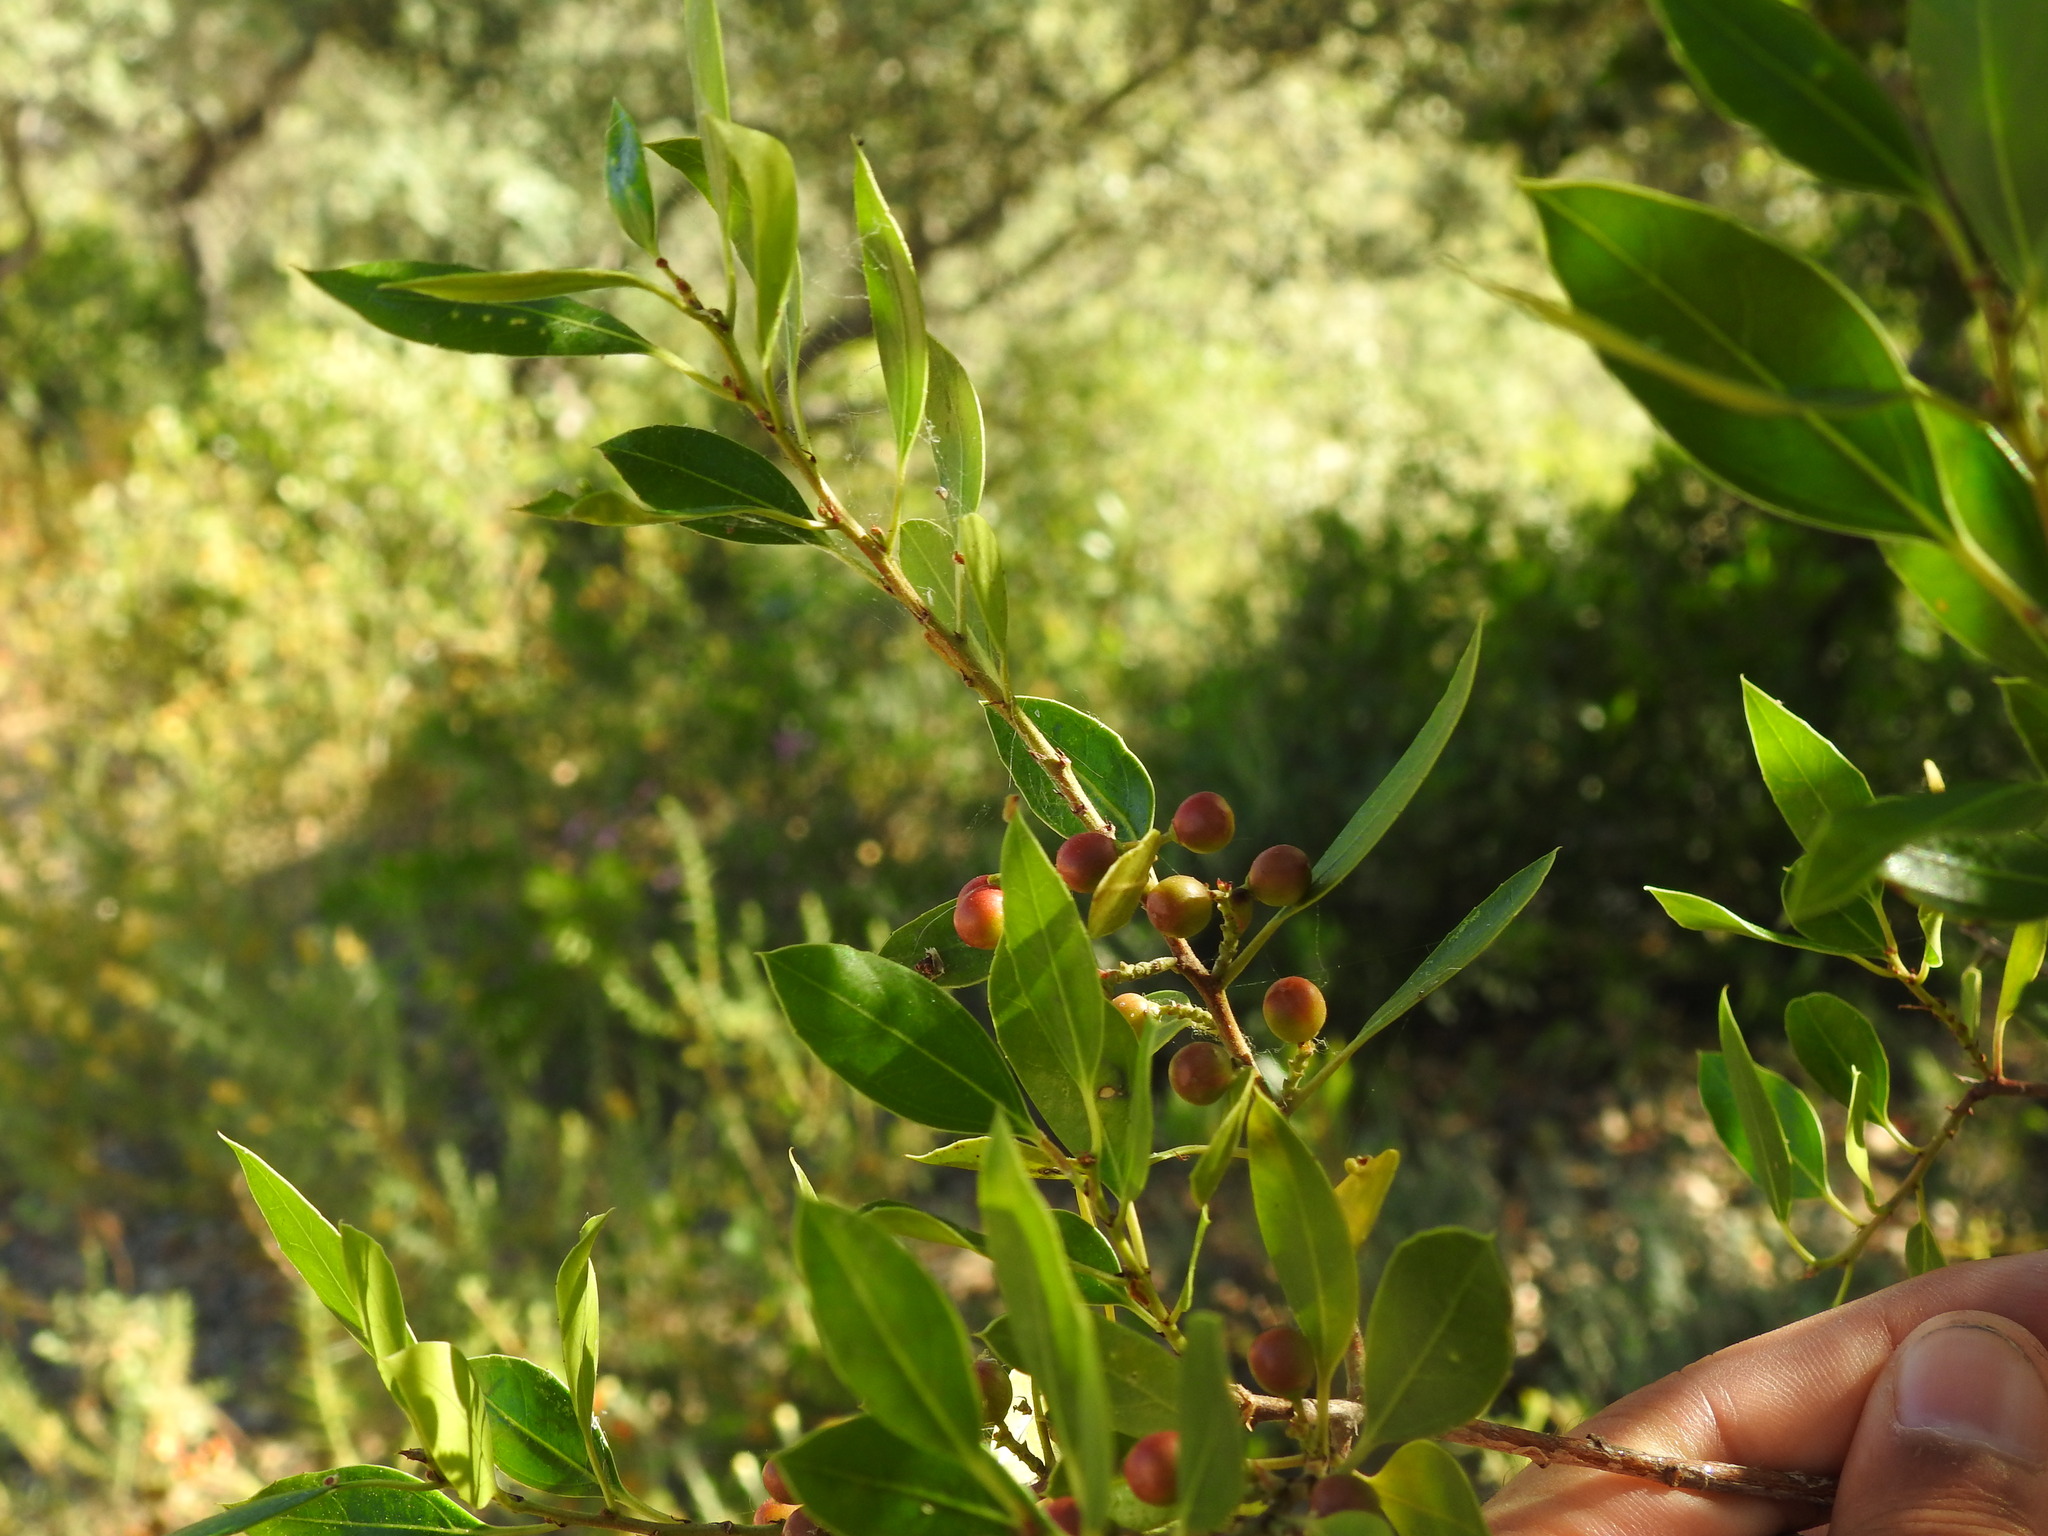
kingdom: Plantae
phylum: Tracheophyta
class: Magnoliopsida
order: Rosales
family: Rhamnaceae
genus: Rhamnus
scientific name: Rhamnus alaternus
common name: Mediterranean buckthorn
